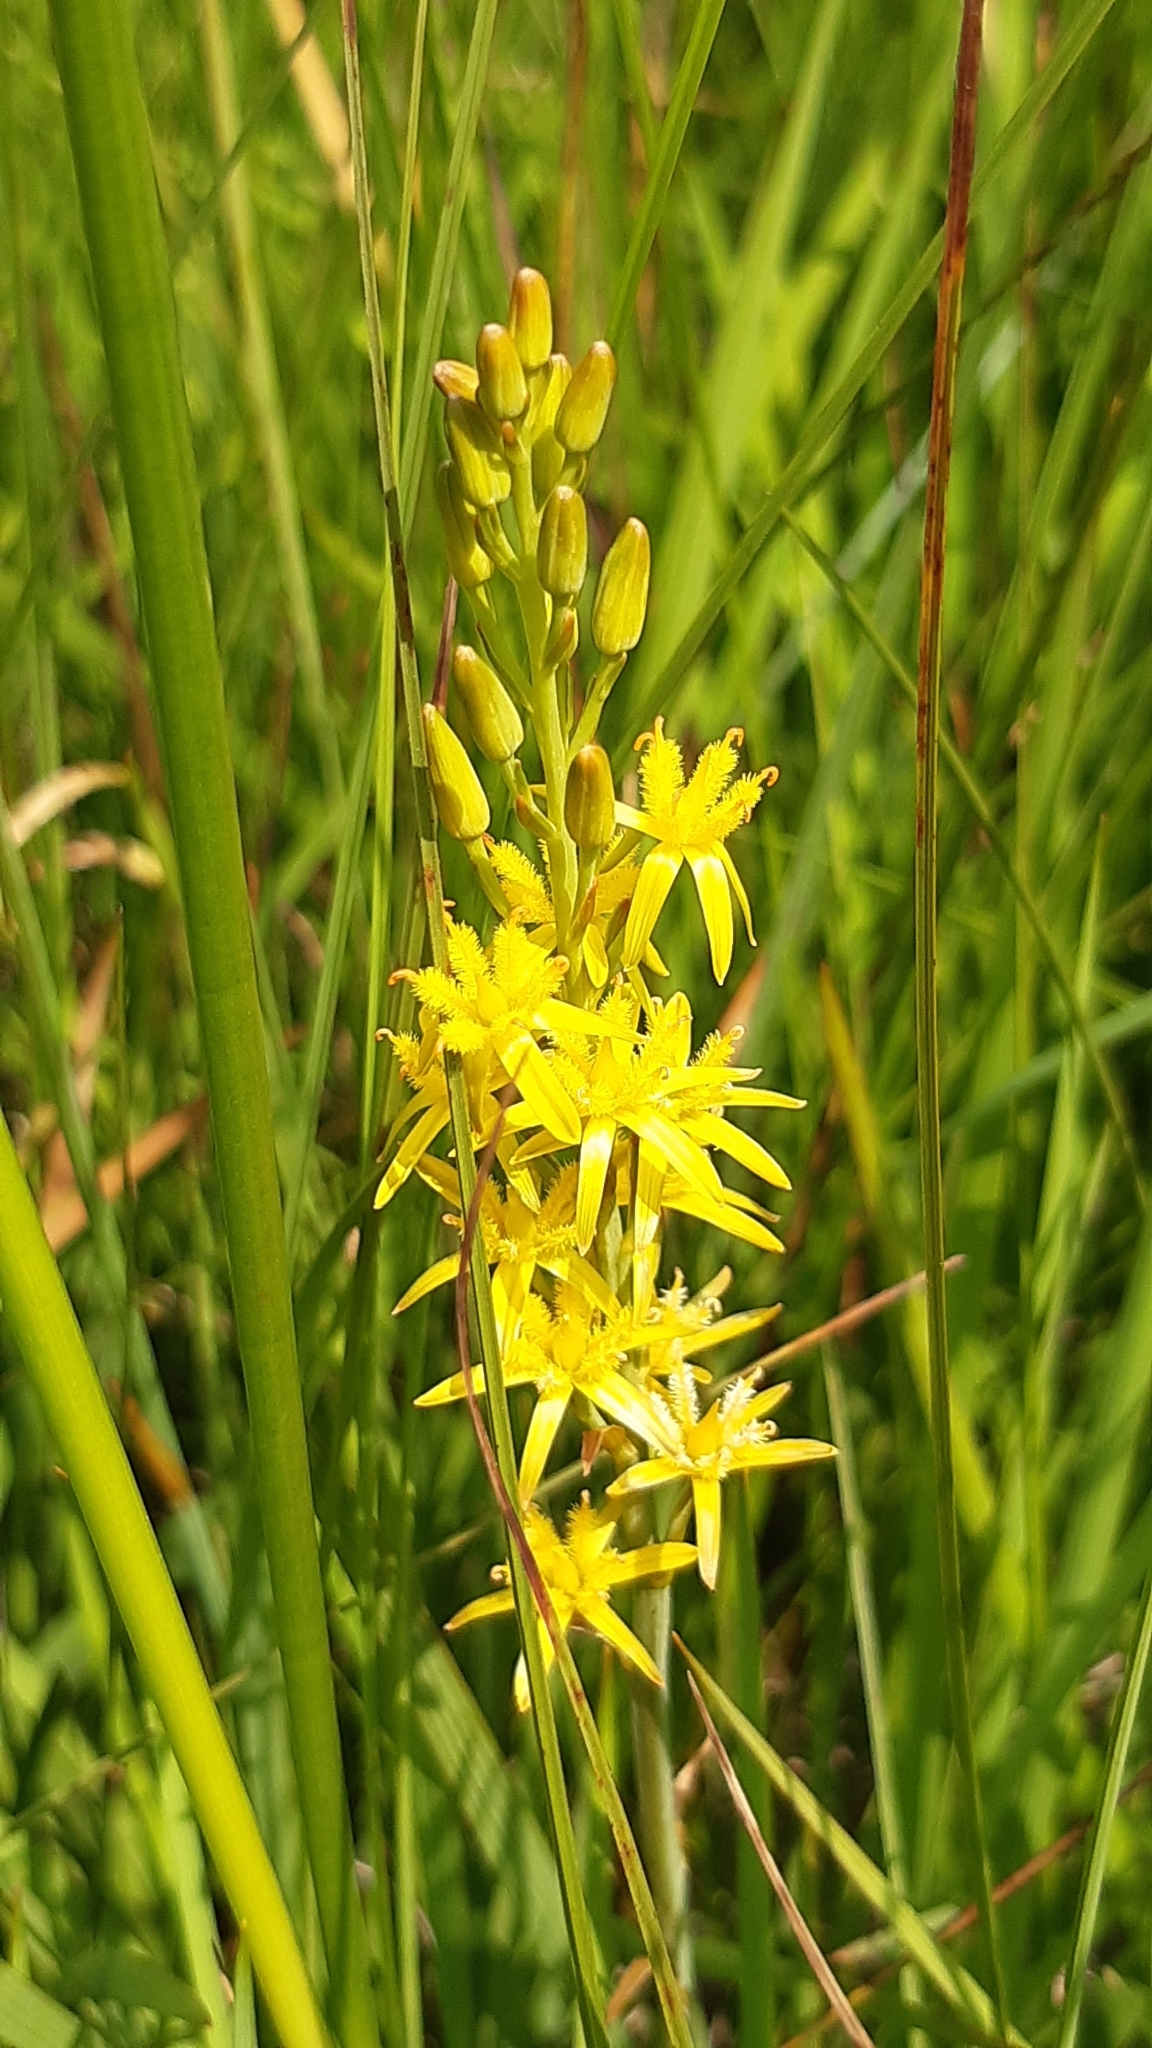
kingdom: Plantae
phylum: Tracheophyta
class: Liliopsida
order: Dioscoreales
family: Nartheciaceae
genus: Narthecium
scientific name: Narthecium ossifragum
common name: Bog asphodel
